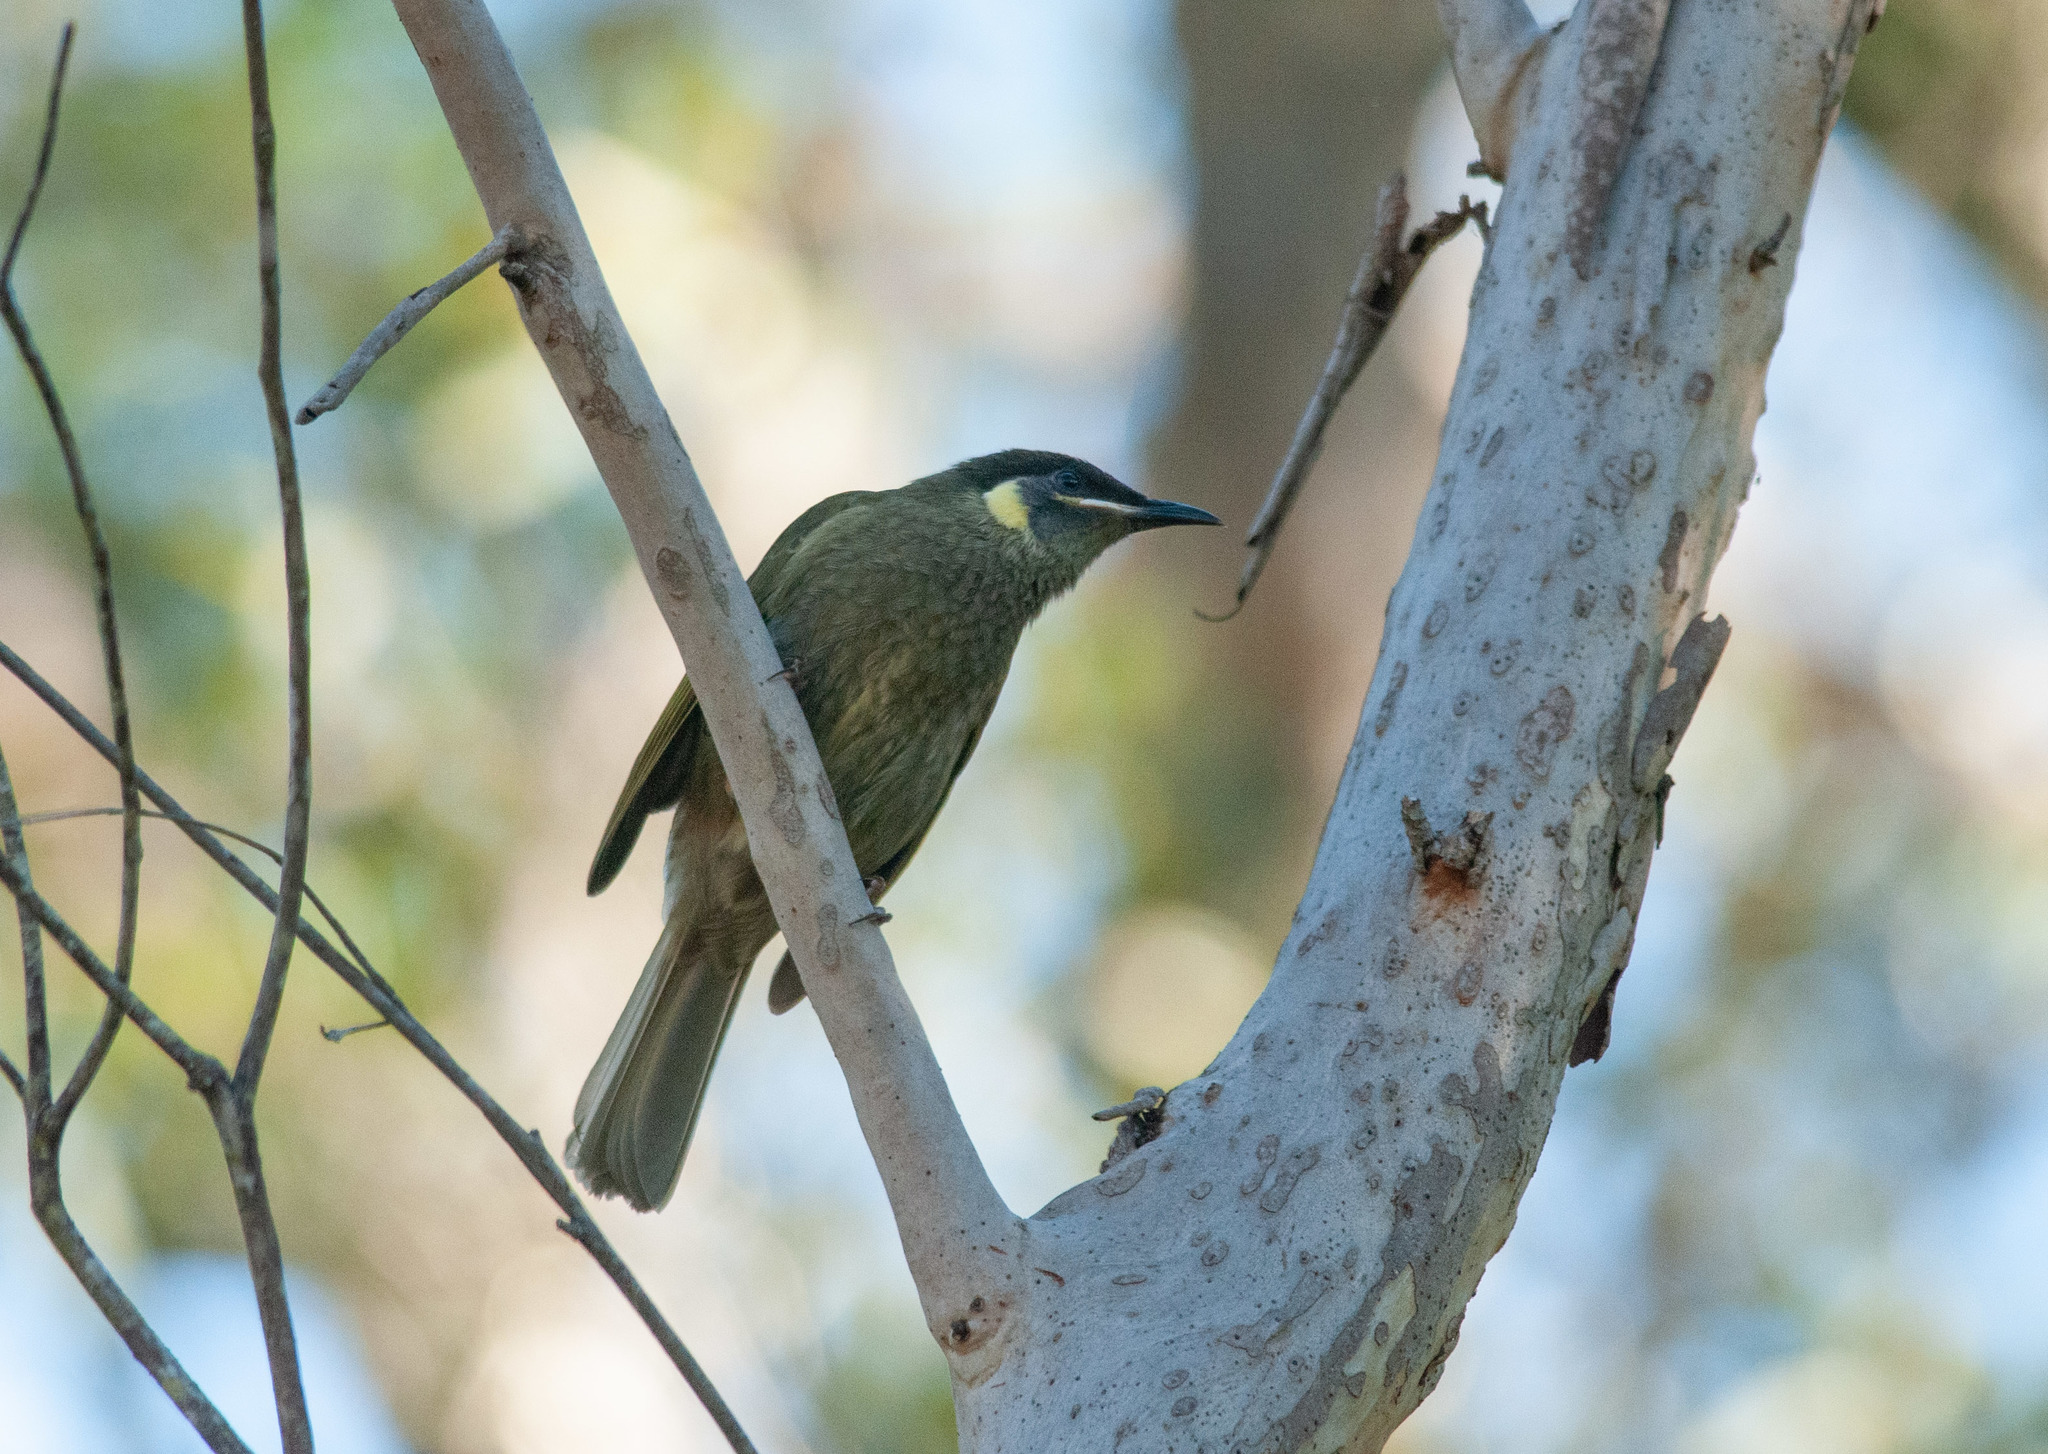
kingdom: Animalia
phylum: Chordata
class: Aves
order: Passeriformes
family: Meliphagidae
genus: Meliphaga
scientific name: Meliphaga lewinii
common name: Lewin's honeyeater
